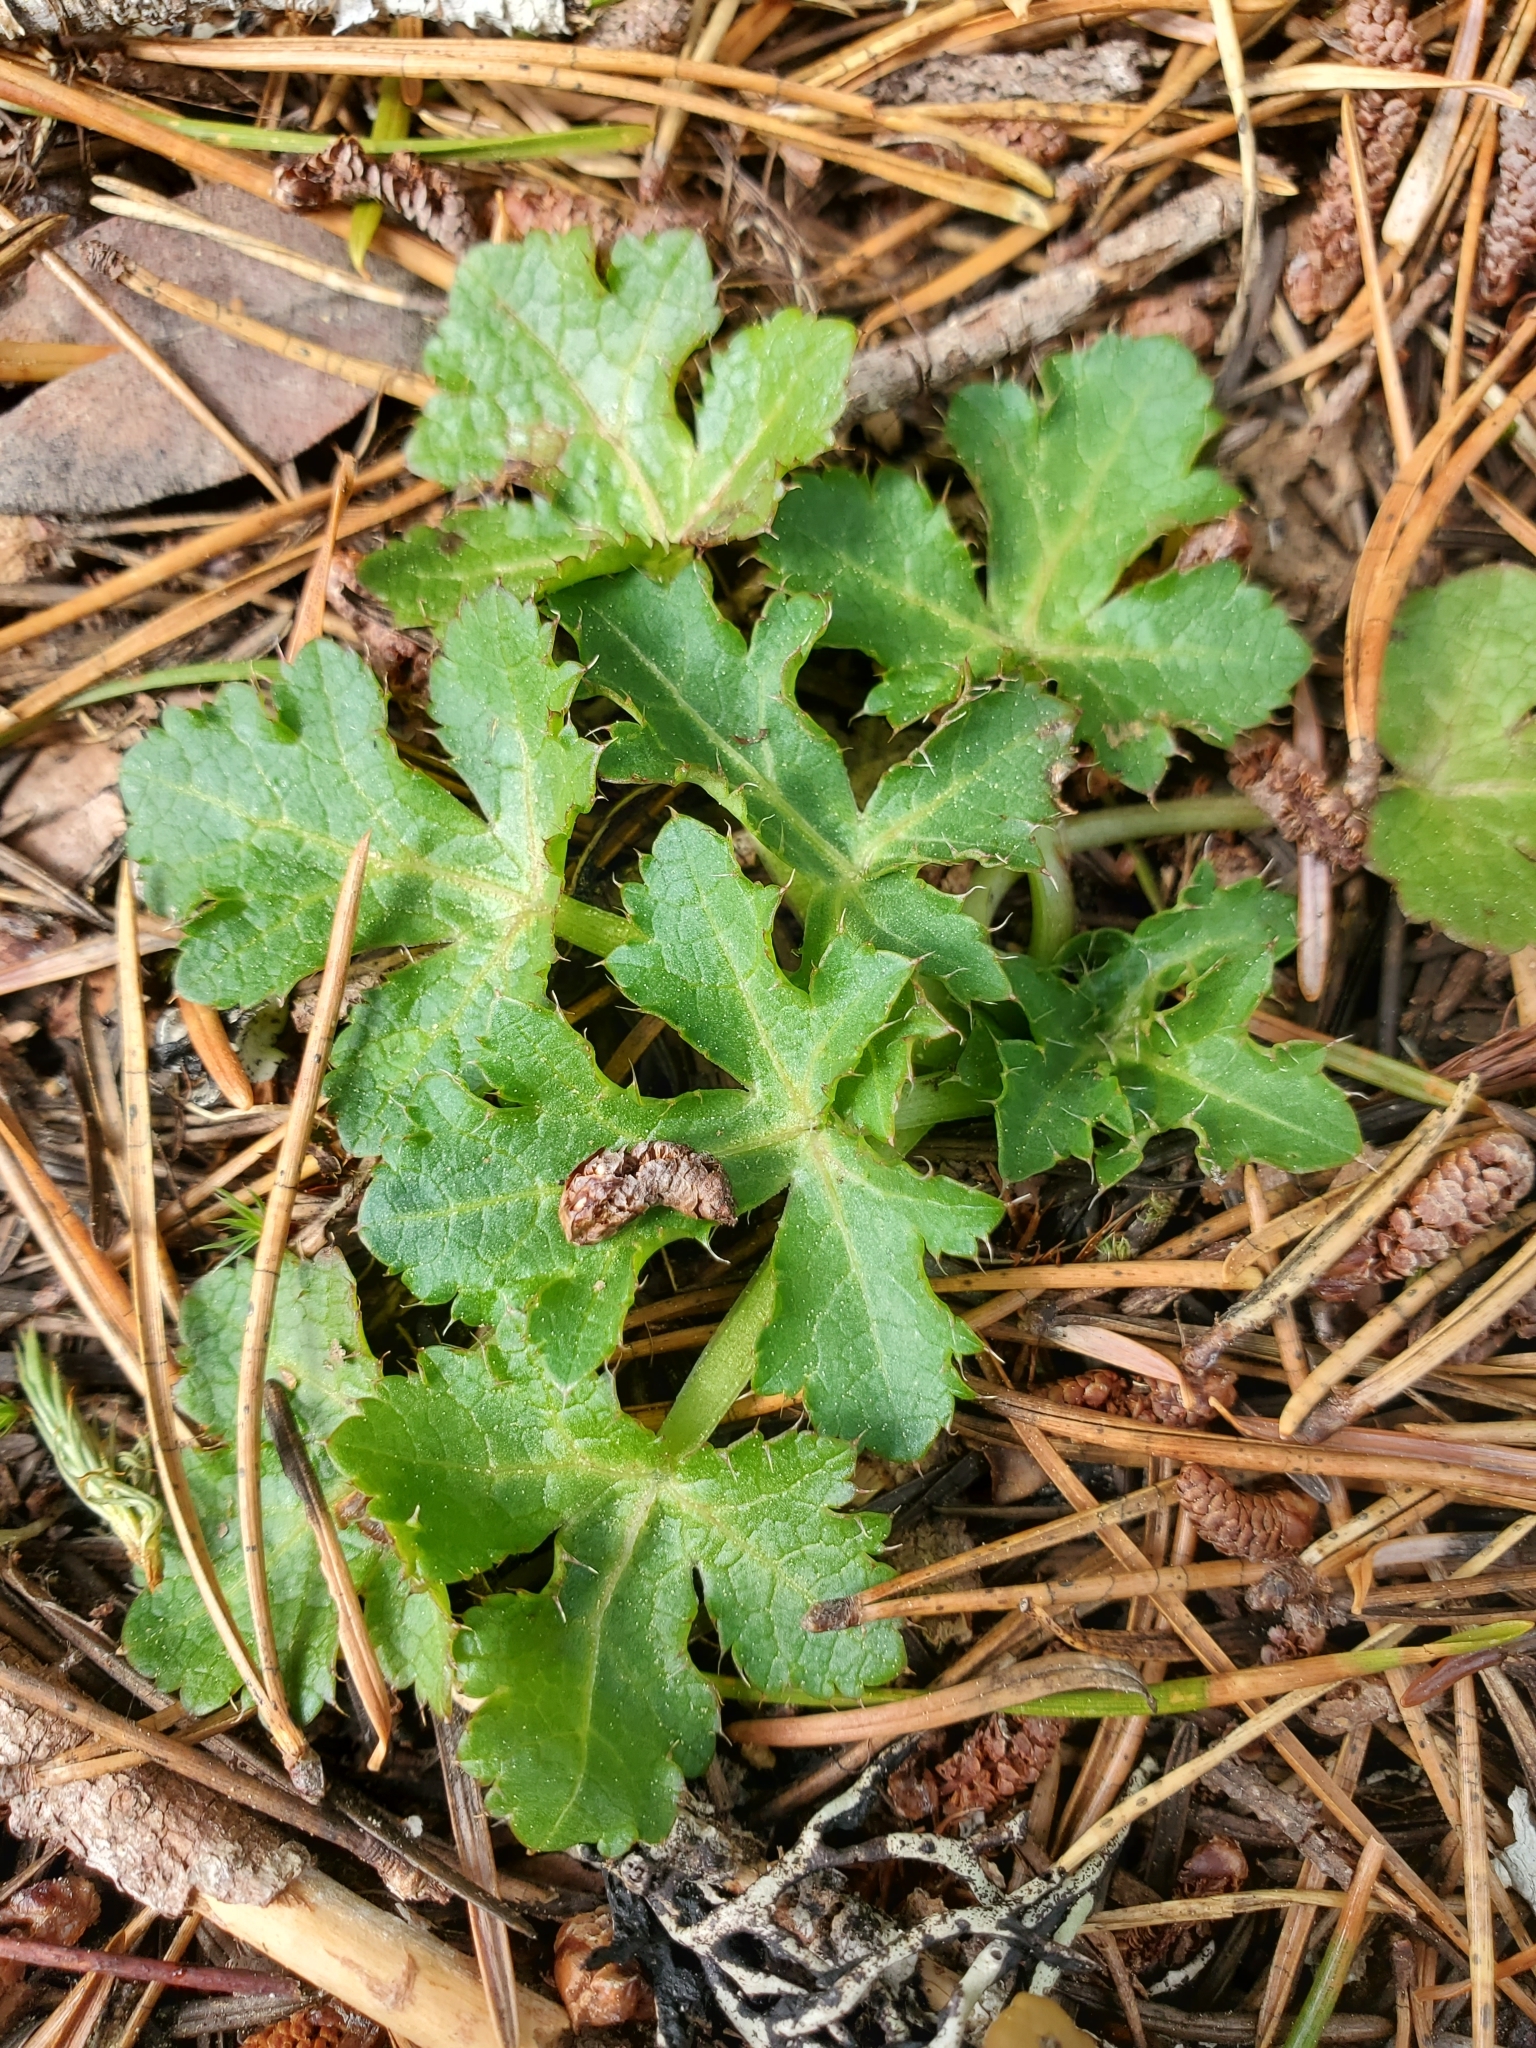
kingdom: Plantae
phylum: Tracheophyta
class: Magnoliopsida
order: Apiales
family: Apiaceae
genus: Sanicula
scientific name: Sanicula crassicaulis
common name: Western snakeroot
